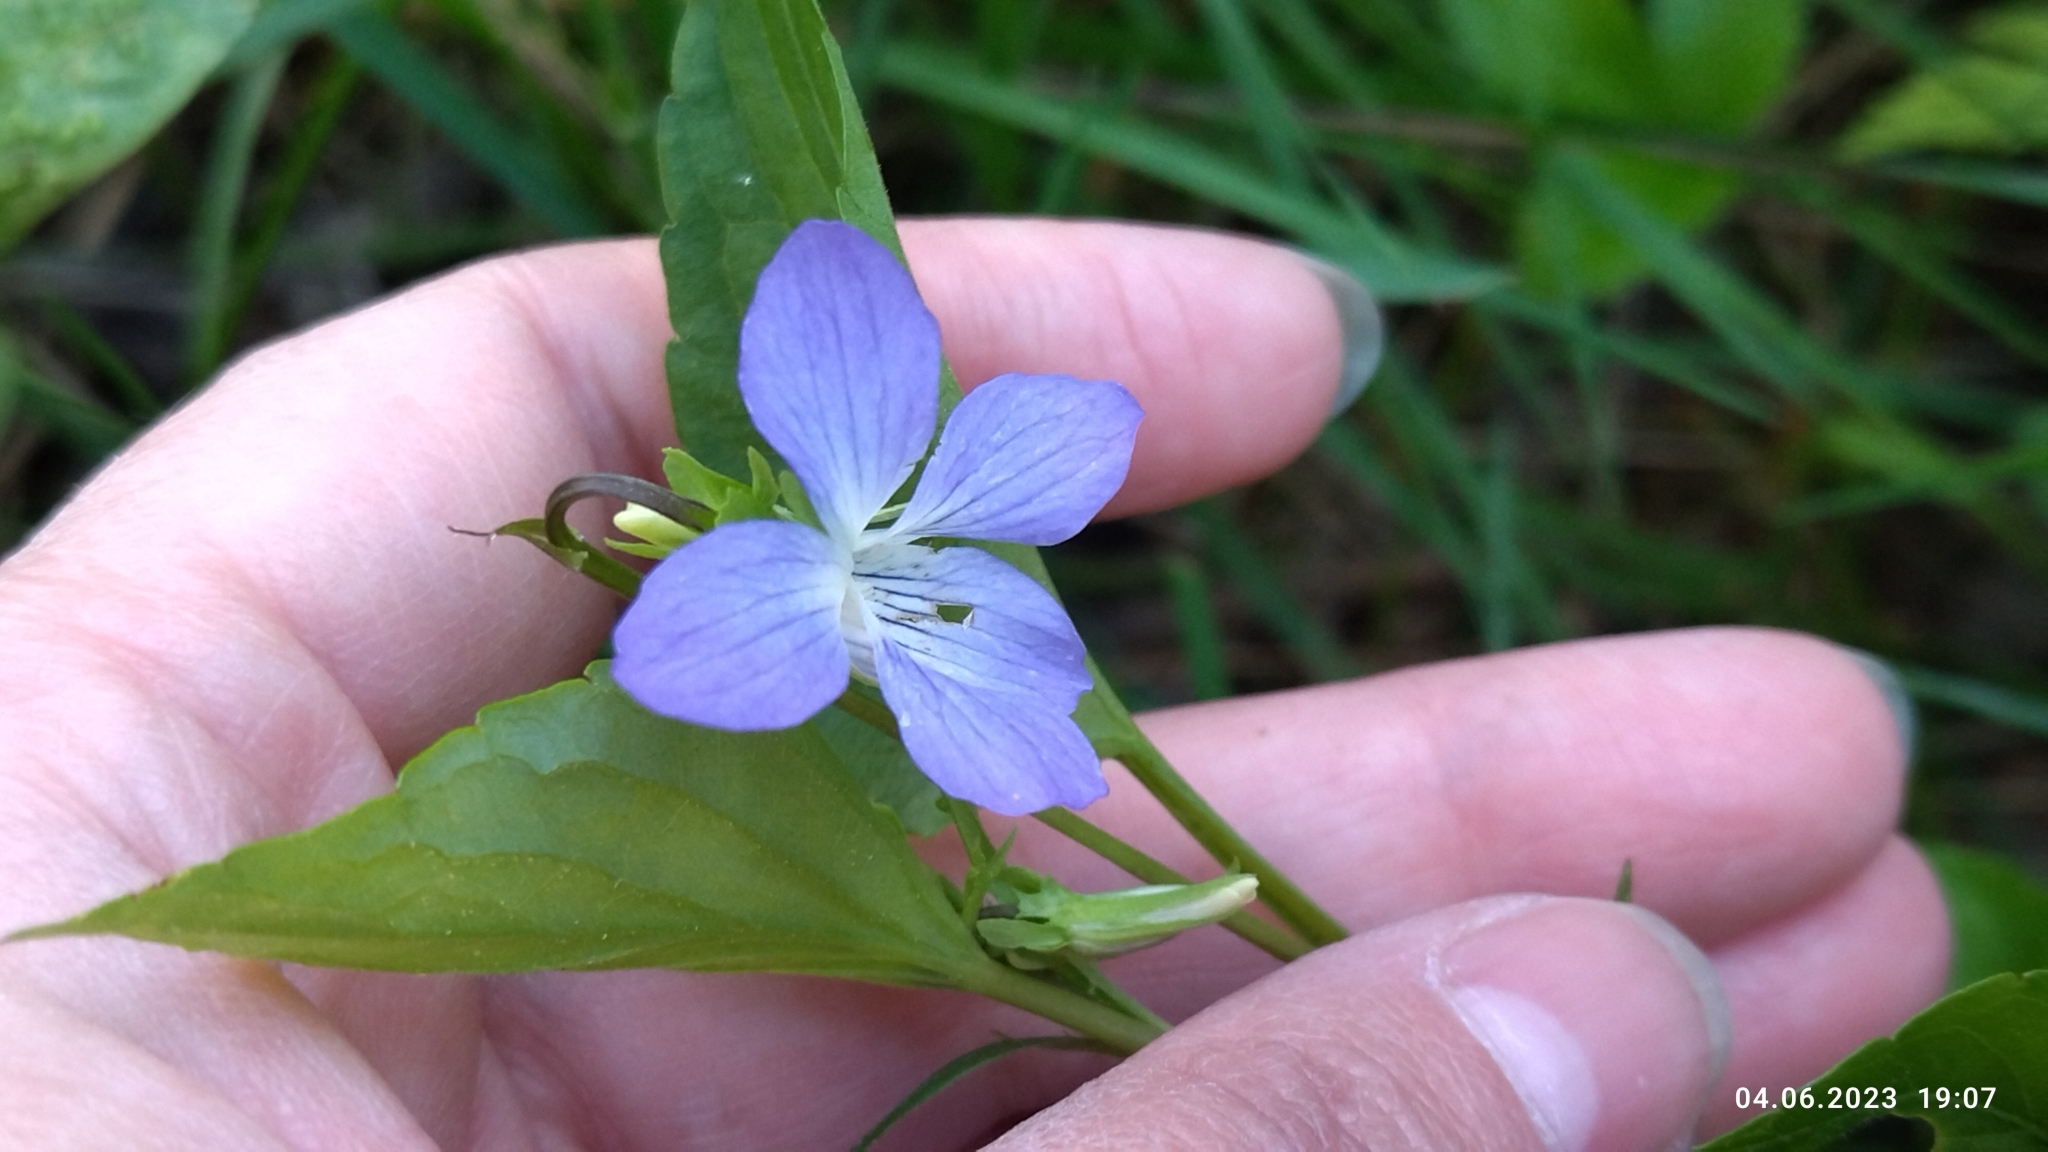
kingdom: Plantae
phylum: Tracheophyta
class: Magnoliopsida
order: Malpighiales
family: Violaceae
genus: Viola
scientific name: Viola
